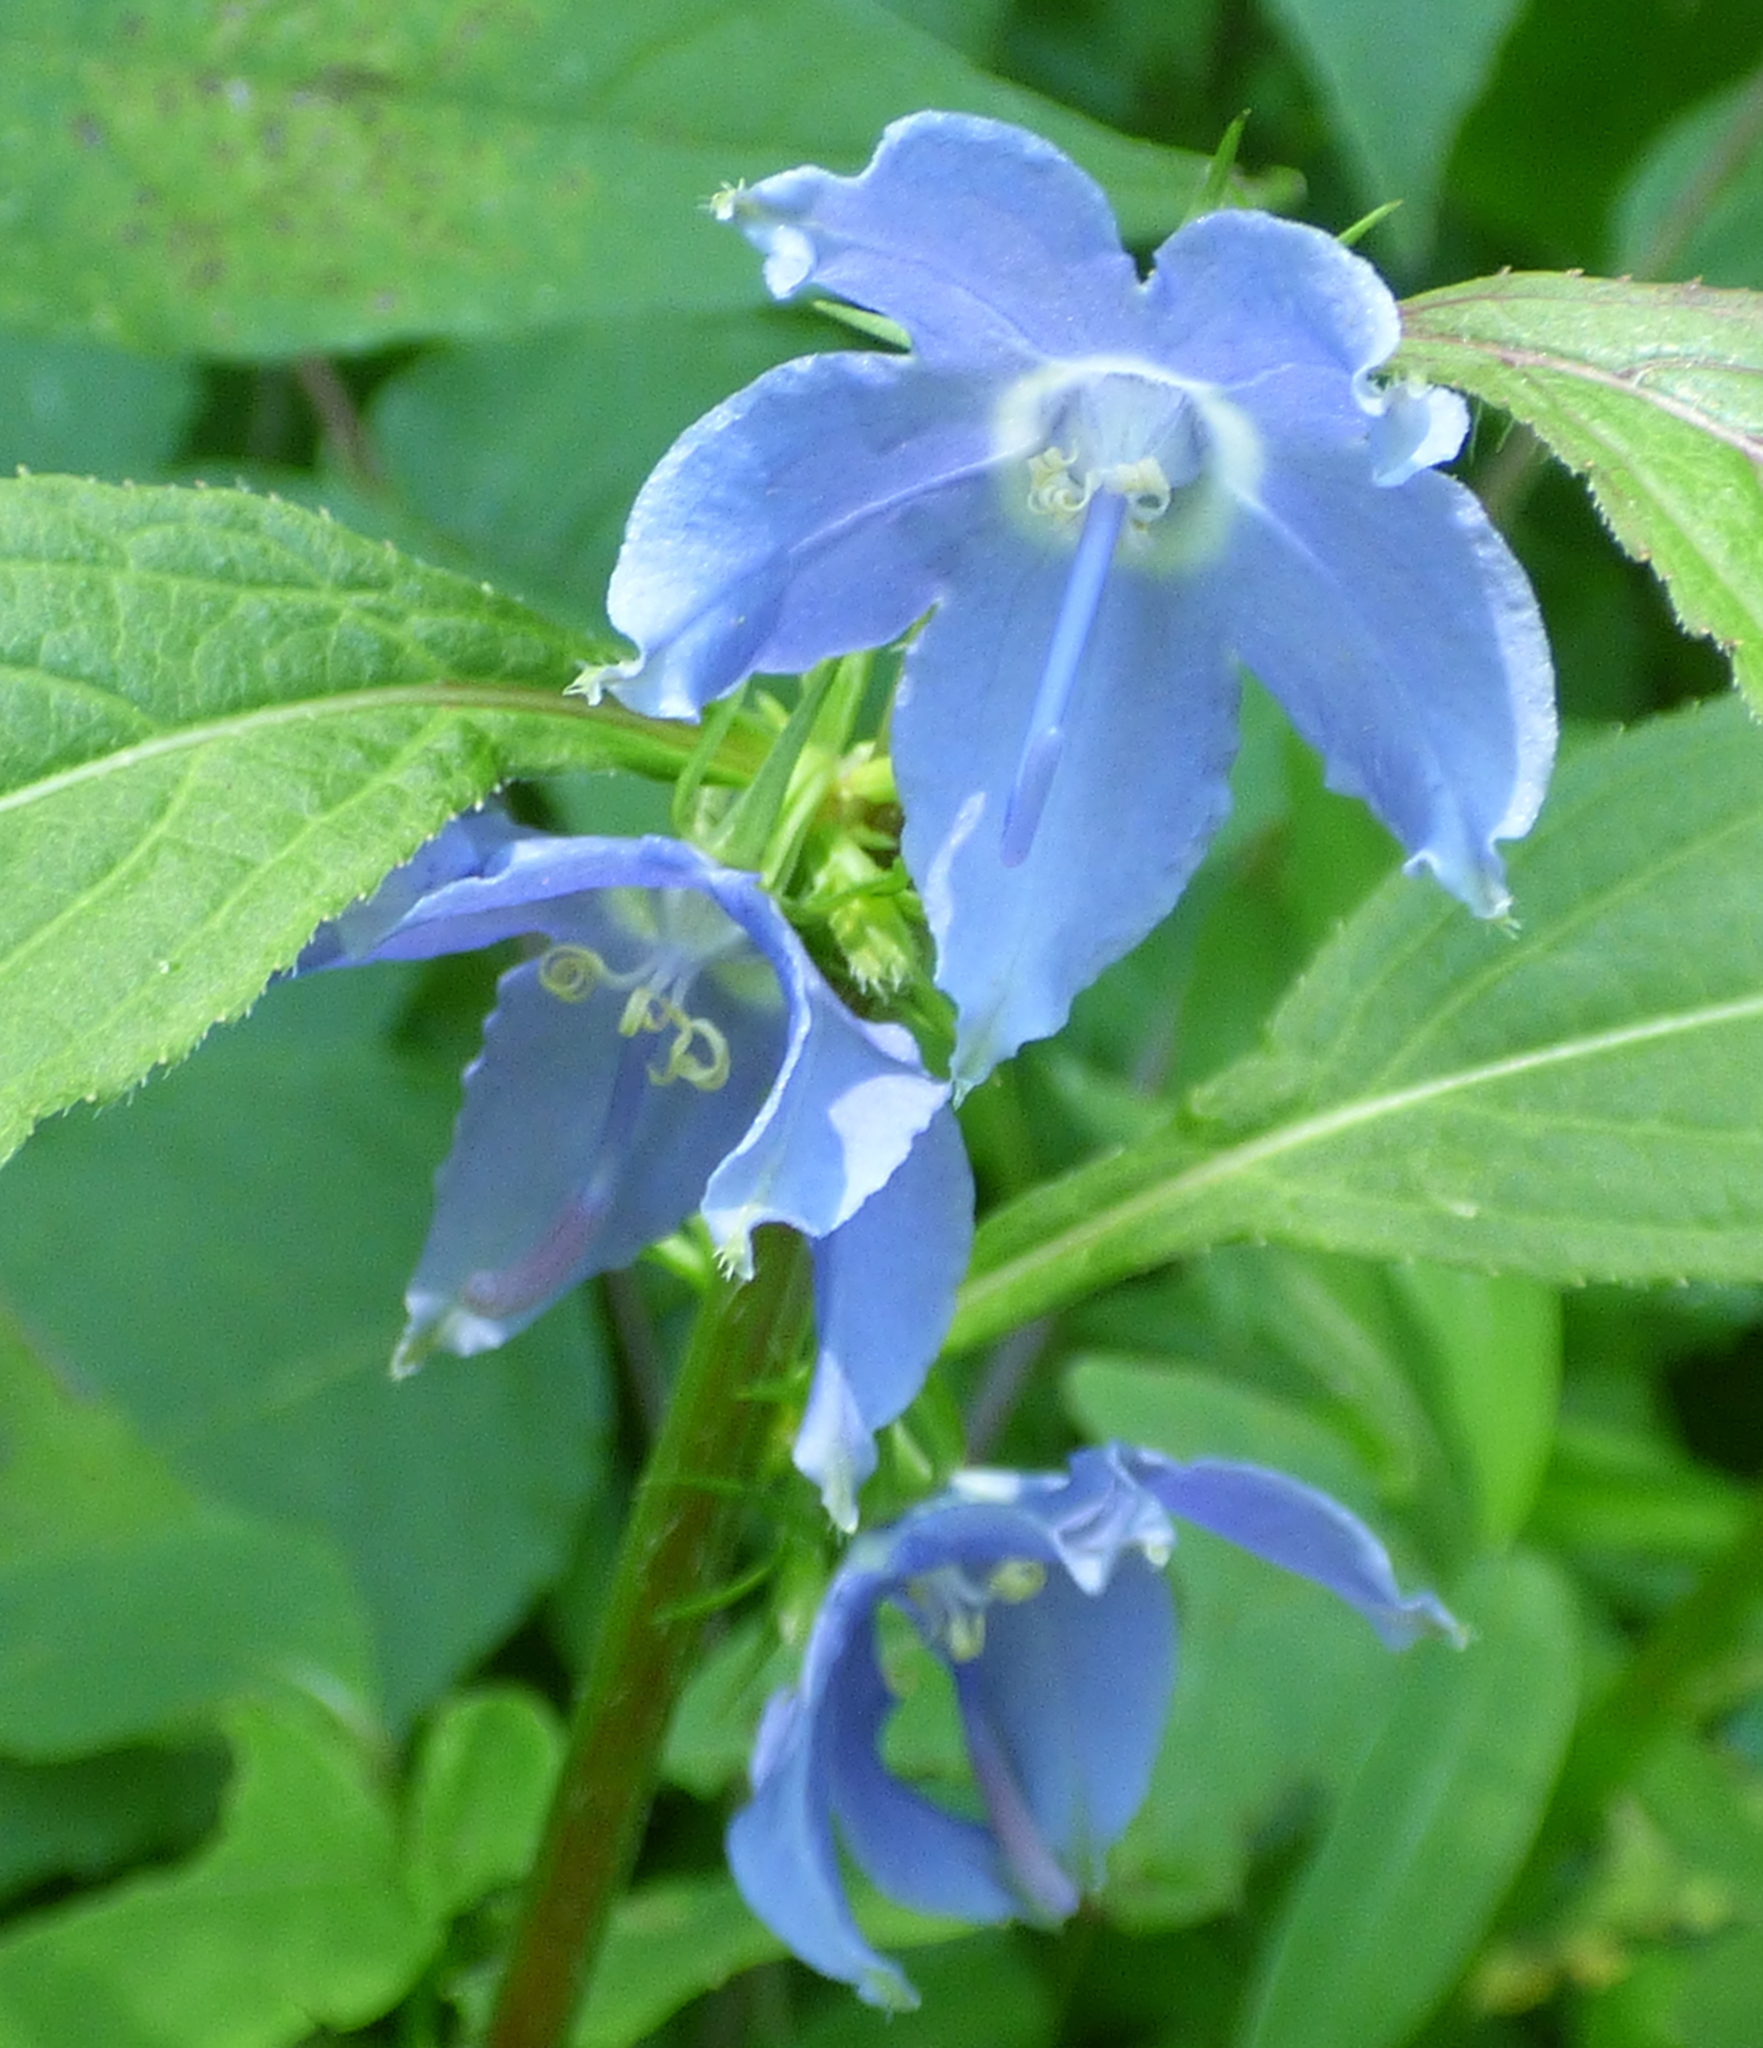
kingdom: Plantae
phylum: Tracheophyta
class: Magnoliopsida
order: Asterales
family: Campanulaceae
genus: Campanulastrum
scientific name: Campanulastrum americanum
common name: American bellflower
